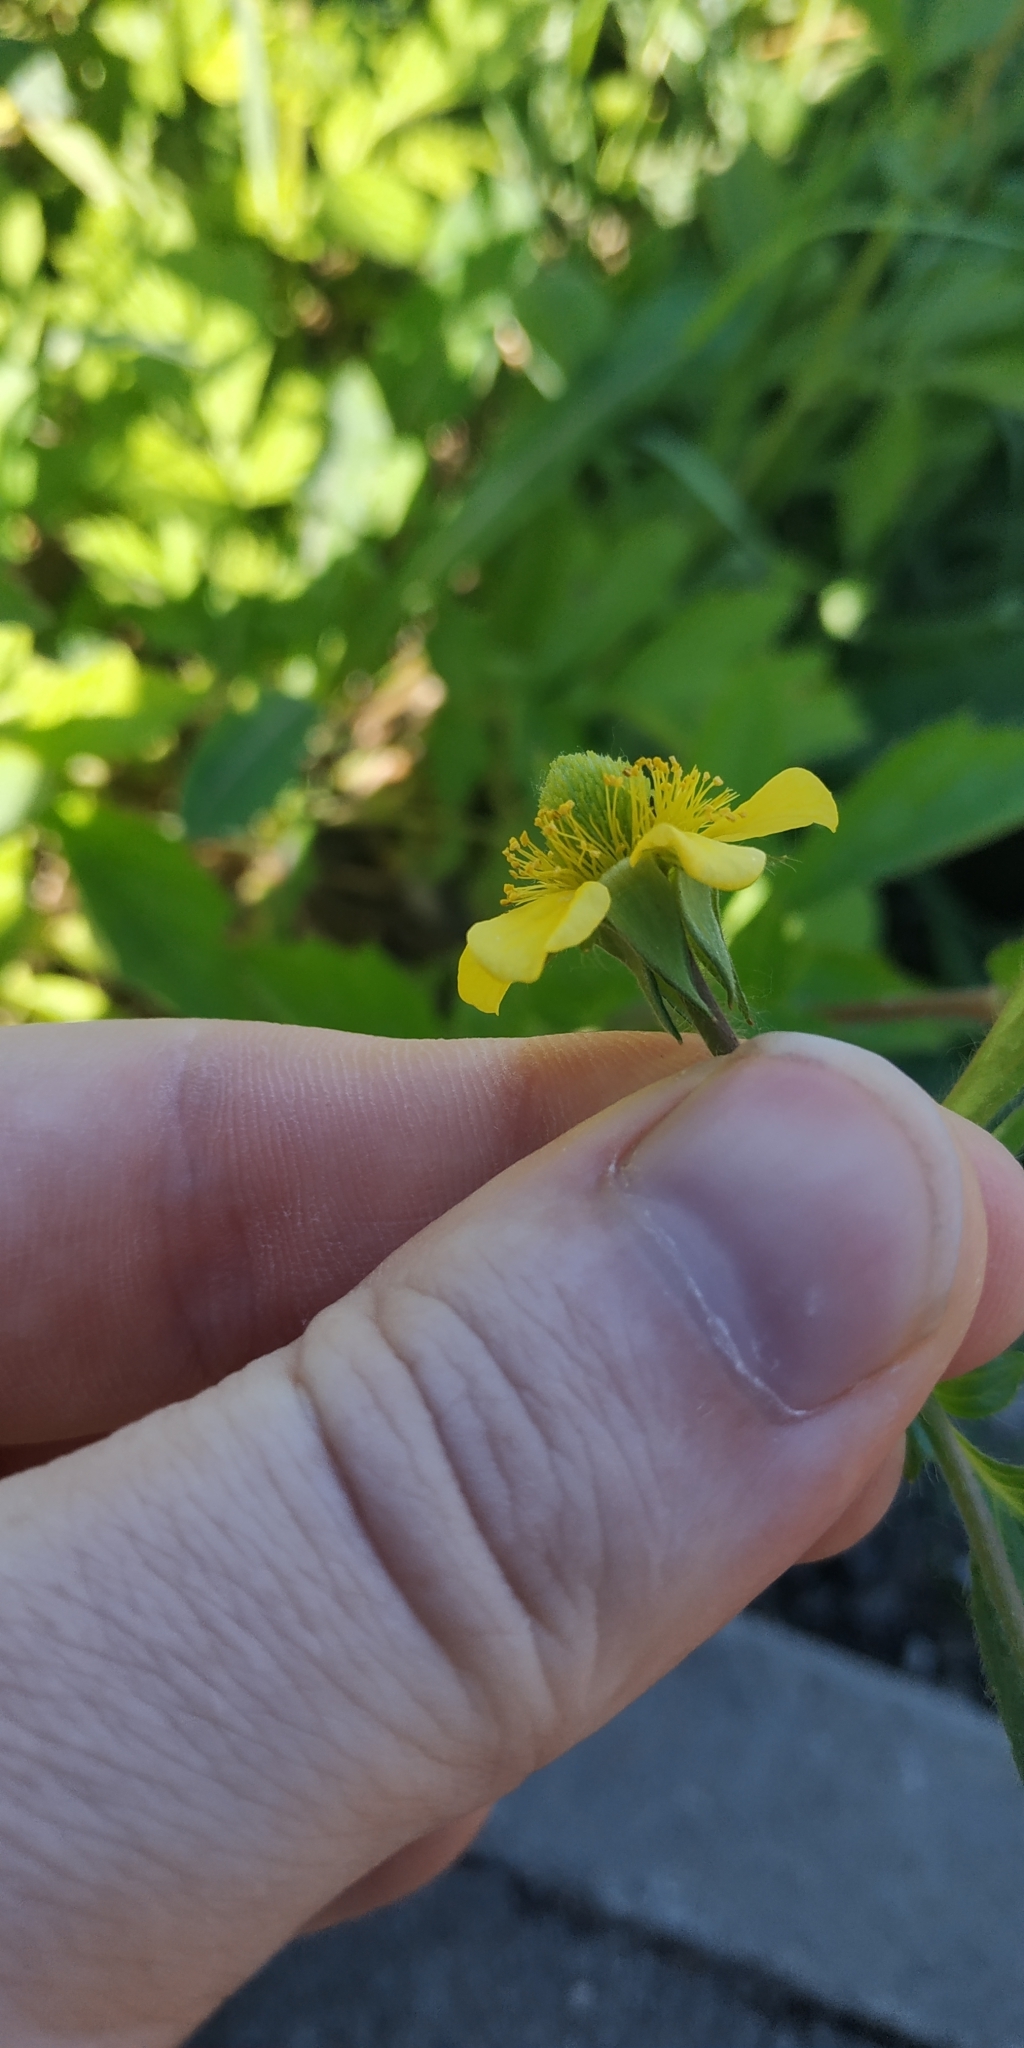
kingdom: Plantae
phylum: Tracheophyta
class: Magnoliopsida
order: Rosales
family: Rosaceae
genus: Geum
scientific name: Geum aleppicum
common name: Yellow avens
